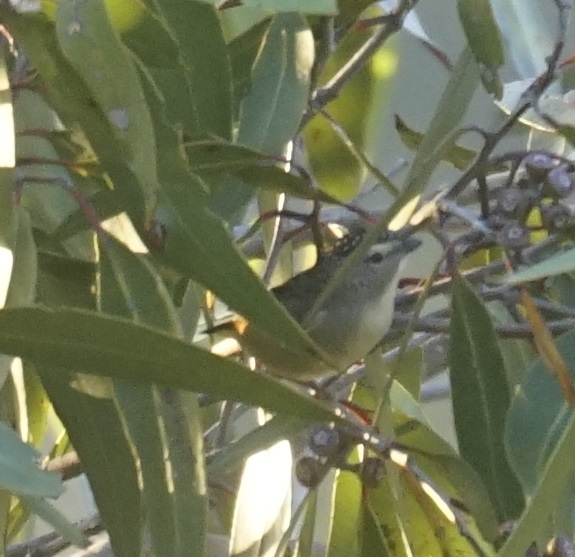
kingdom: Animalia
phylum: Chordata
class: Aves
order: Passeriformes
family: Pardalotidae
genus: Pardalotus
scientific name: Pardalotus punctatus
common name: Spotted pardalote
